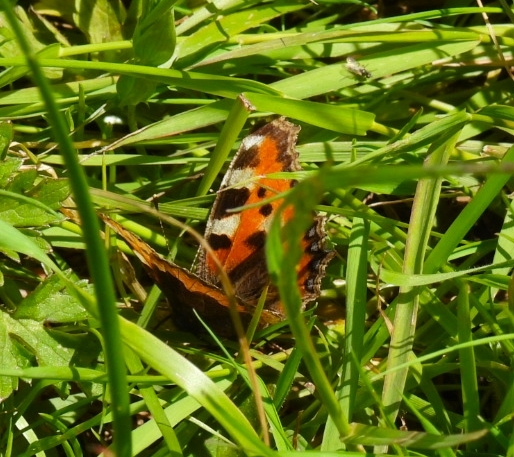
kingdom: Animalia
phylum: Arthropoda
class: Insecta
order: Lepidoptera
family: Nymphalidae
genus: Aglais
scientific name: Aglais urticae
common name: Small tortoiseshell
